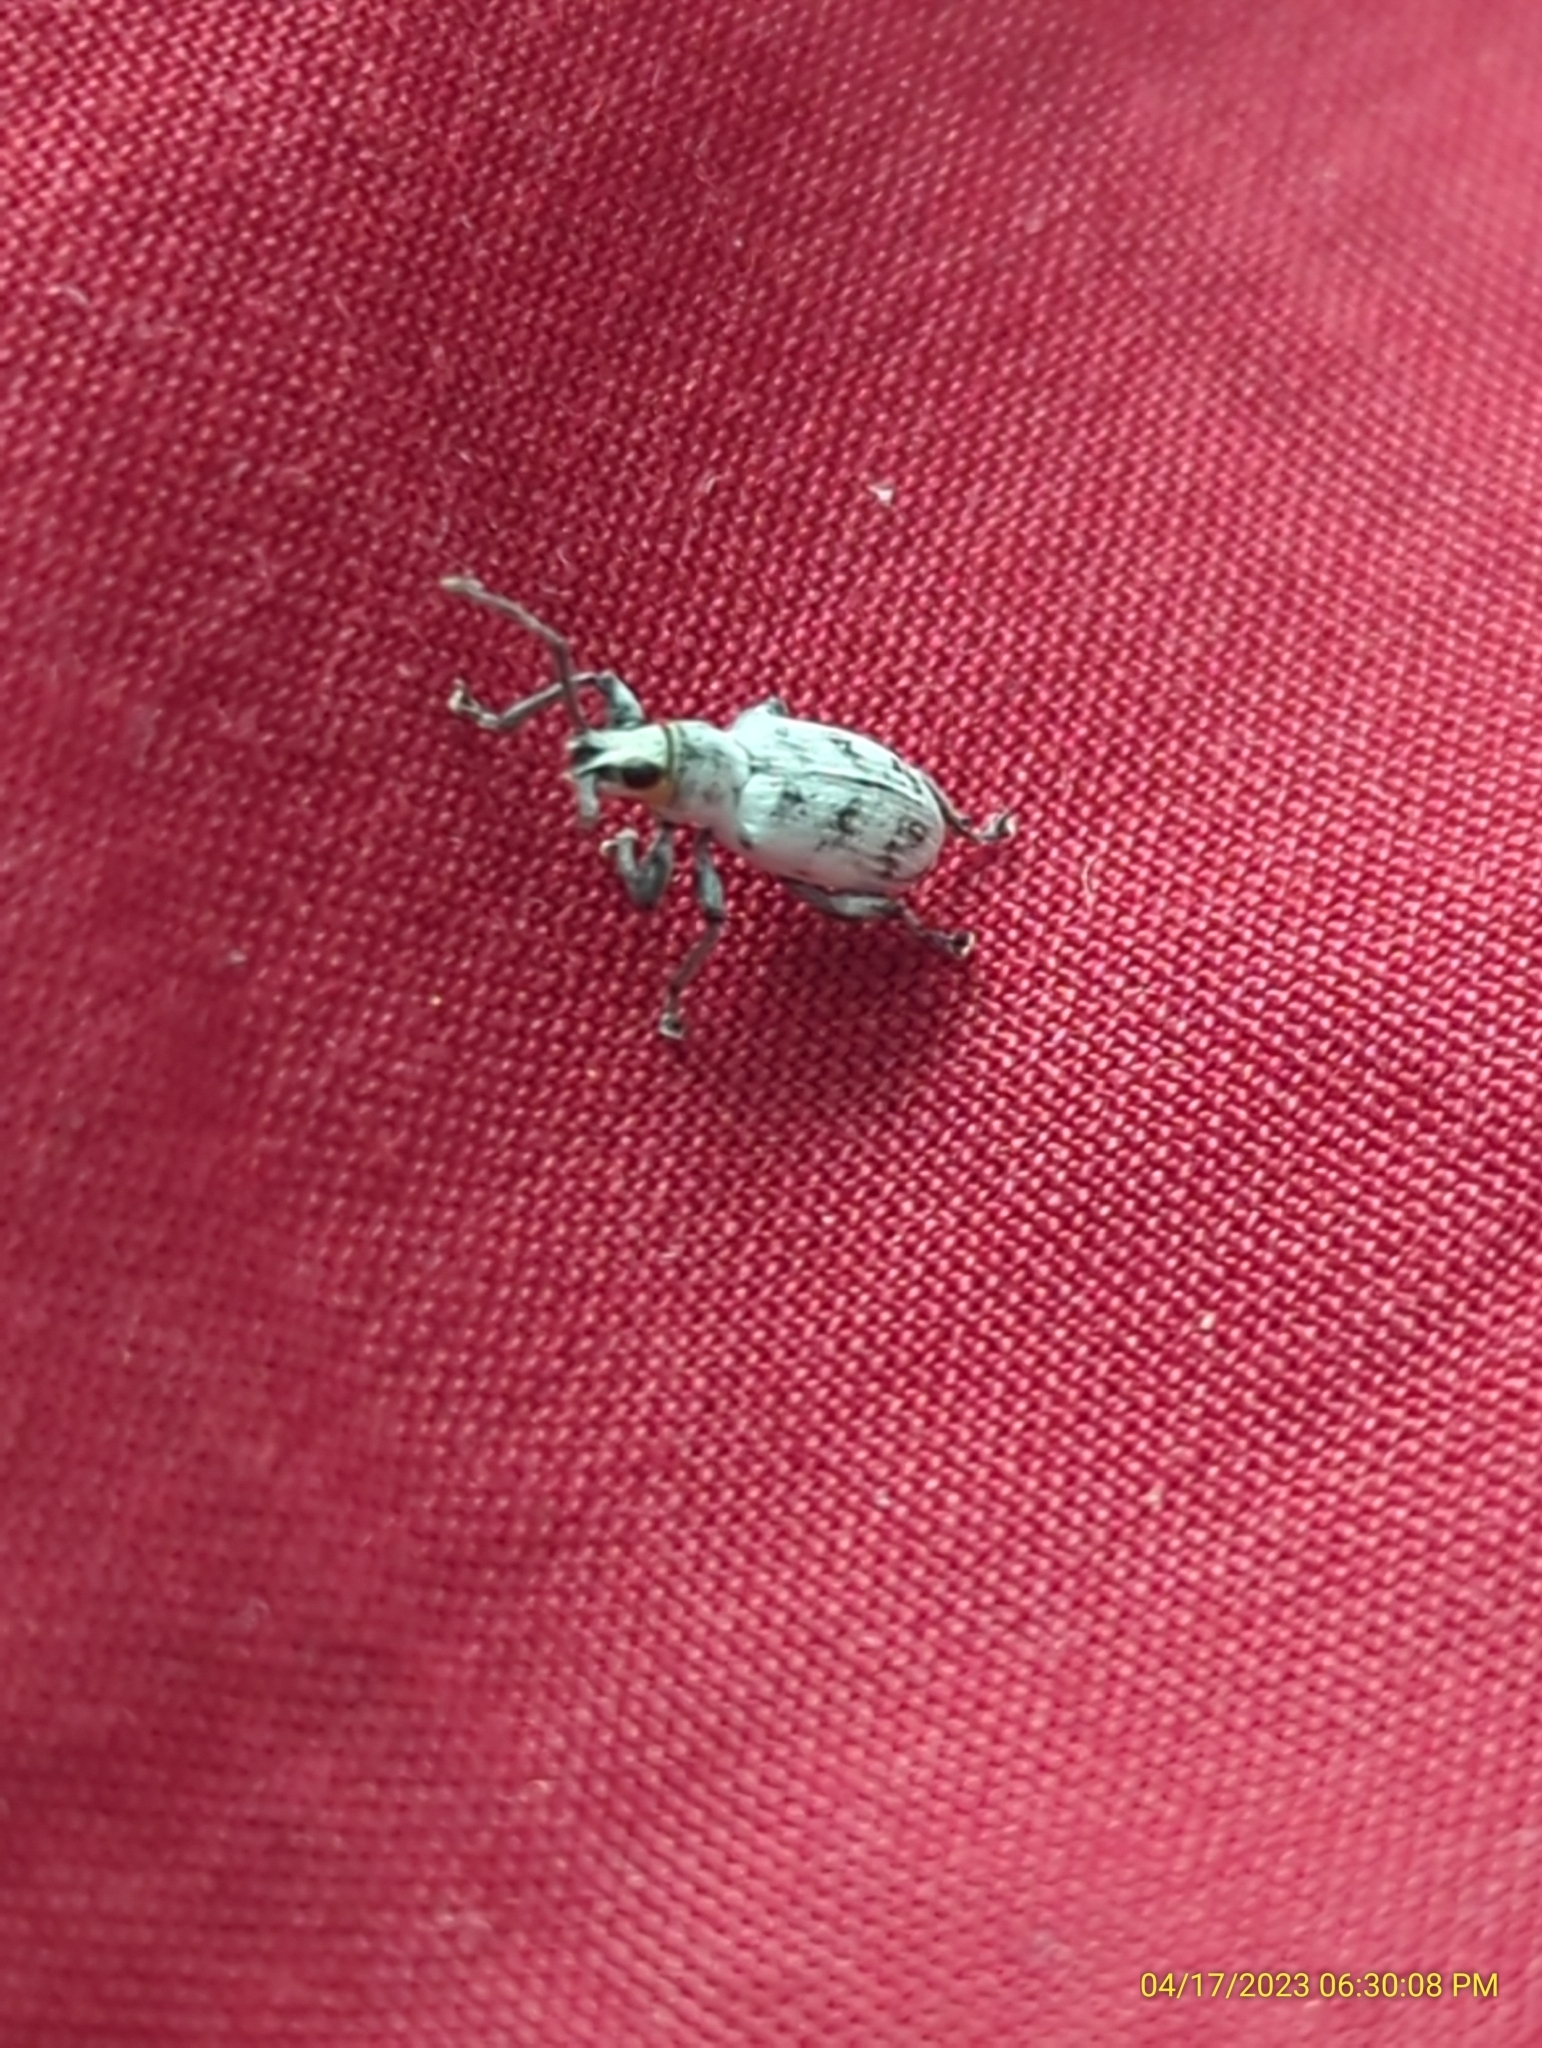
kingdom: Animalia
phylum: Arthropoda
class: Insecta
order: Coleoptera
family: Curculionidae
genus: Myllocerus
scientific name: Myllocerus undecimpustulatus
